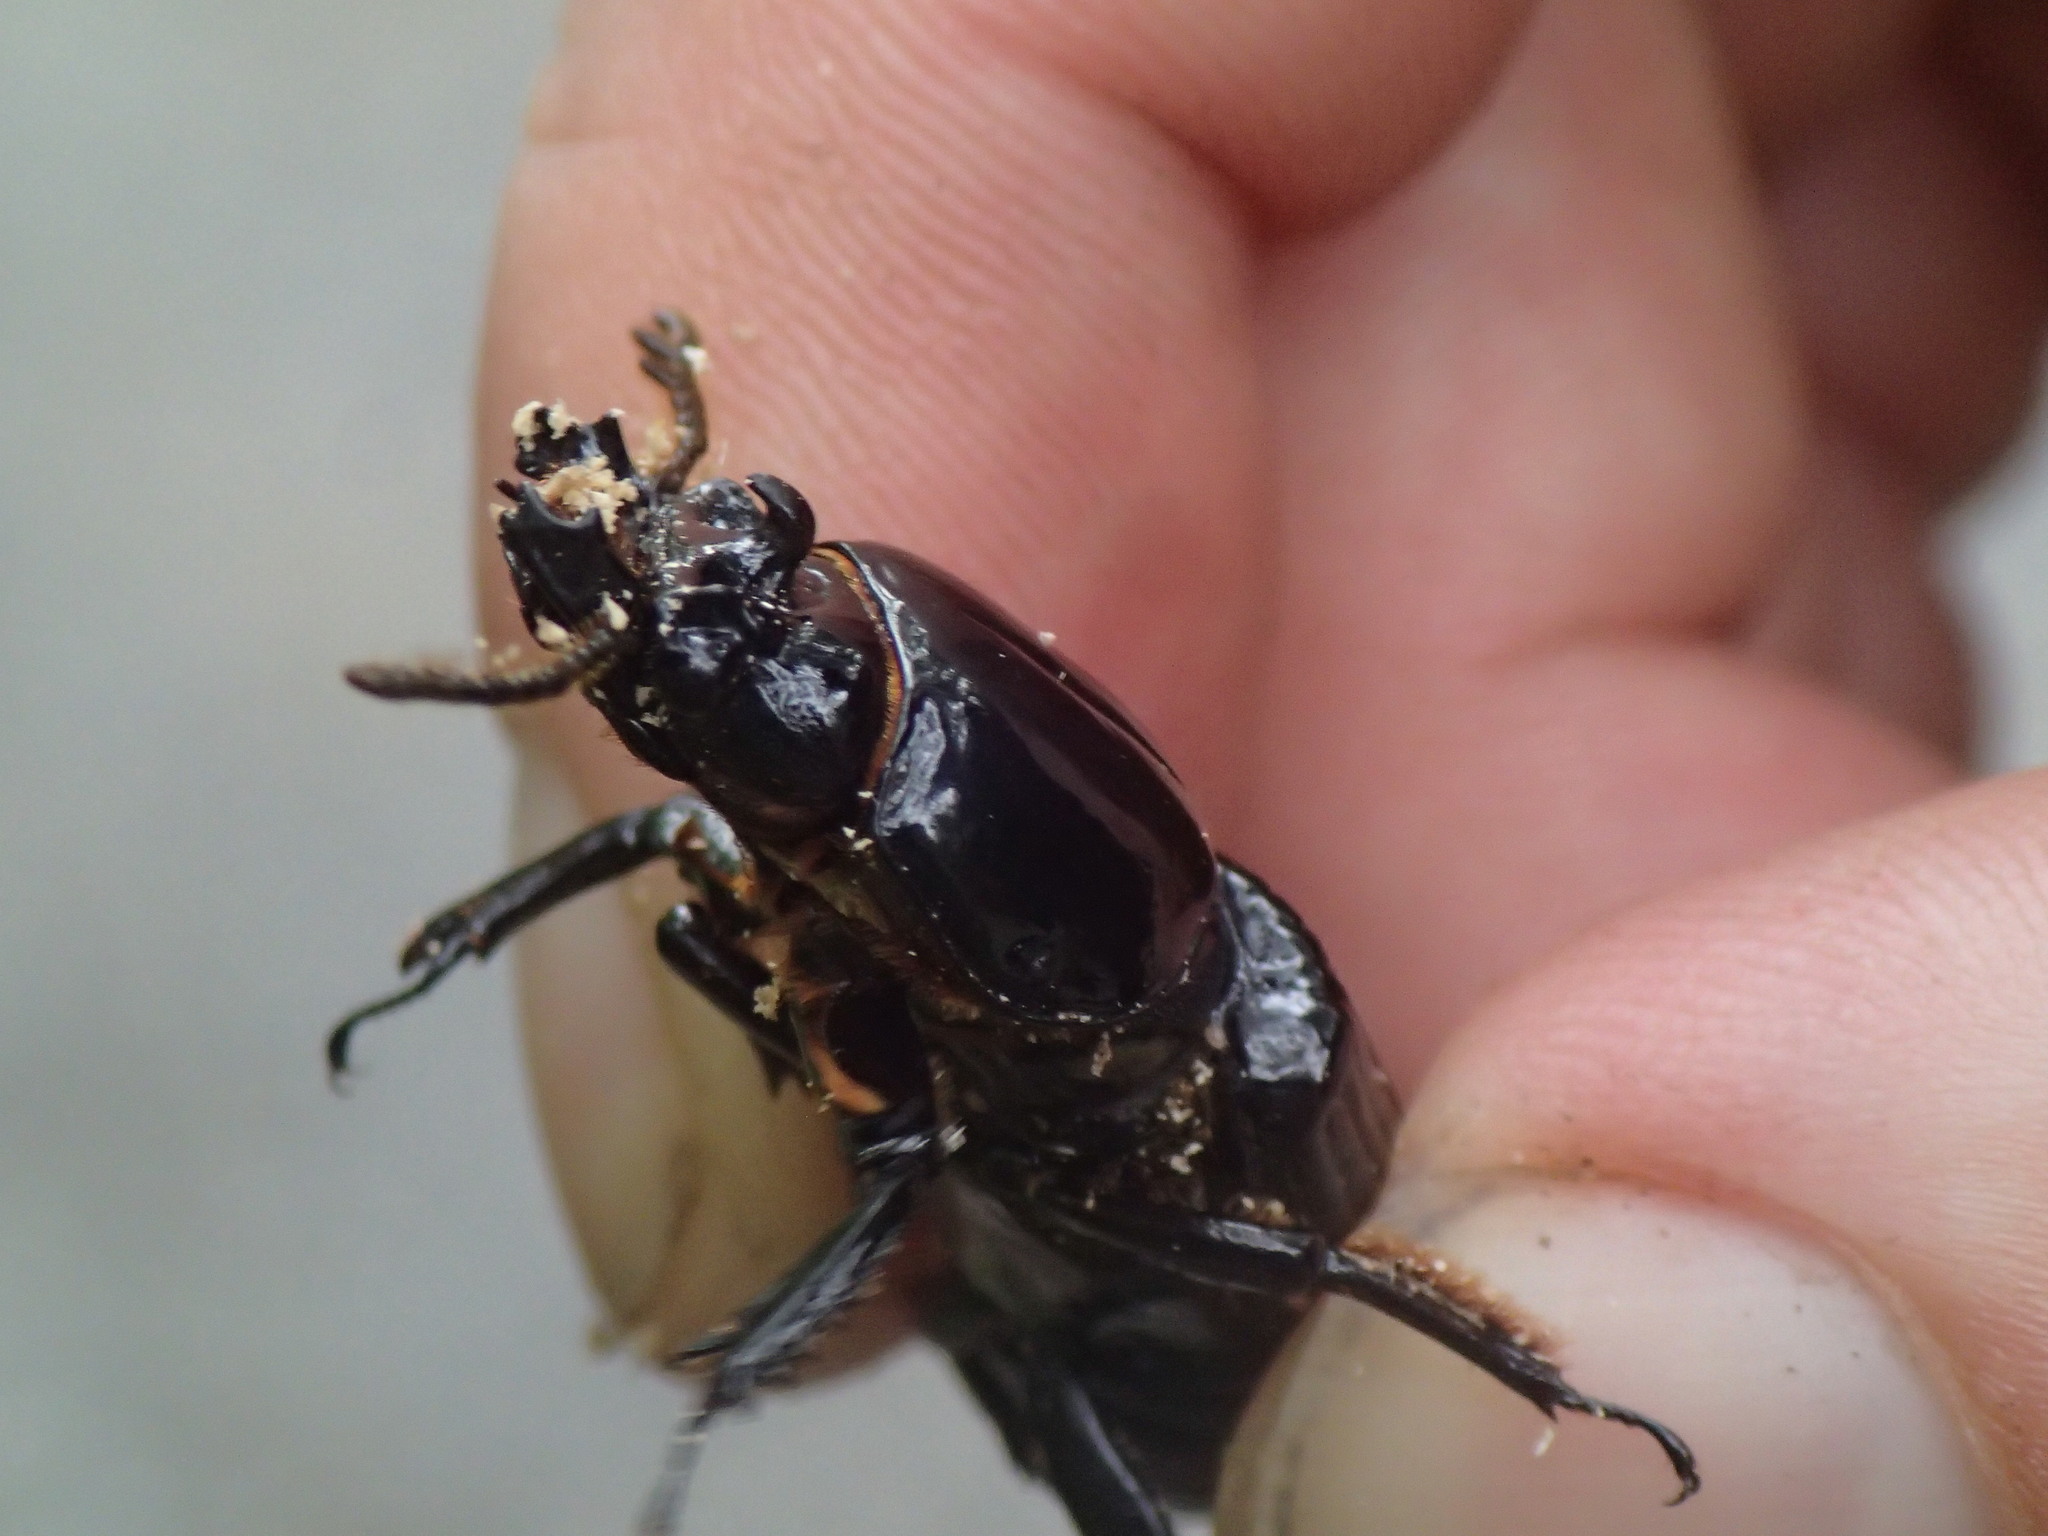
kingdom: Animalia
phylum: Arthropoda
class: Insecta
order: Coleoptera
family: Passalidae
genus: Odontotaenius
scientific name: Odontotaenius disjunctus
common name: Patent leather beetle
